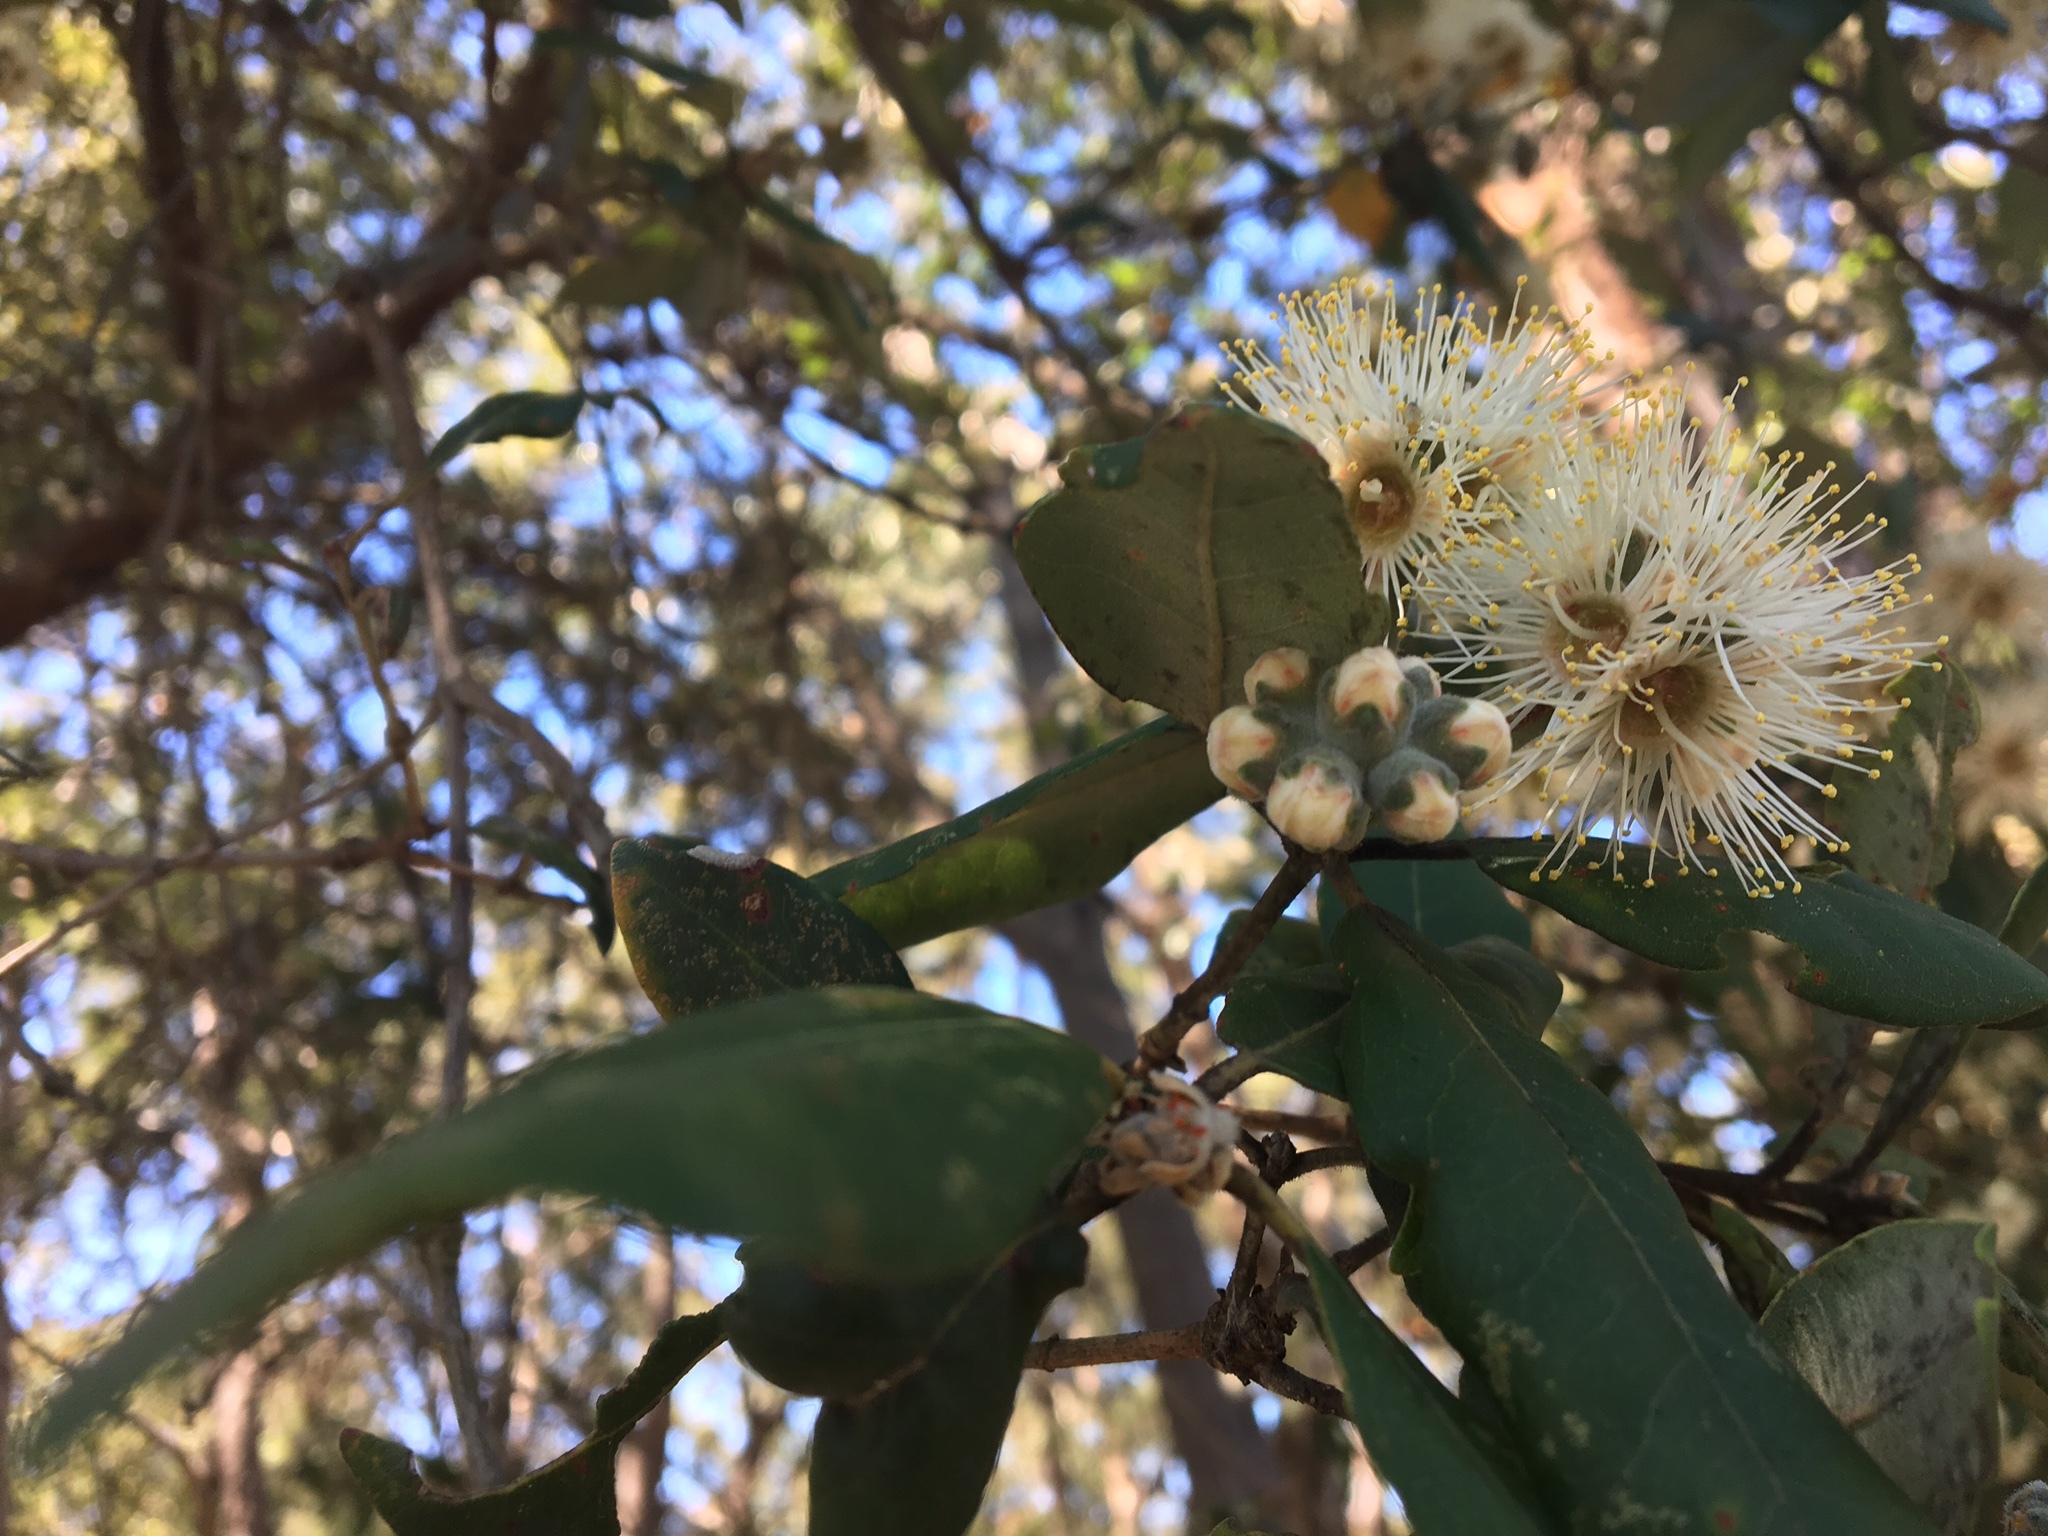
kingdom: Plantae
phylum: Tracheophyta
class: Magnoliopsida
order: Myrtales
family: Myrtaceae
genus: Syncarpia
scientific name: Syncarpia glomulifera
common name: Turpentine tree
